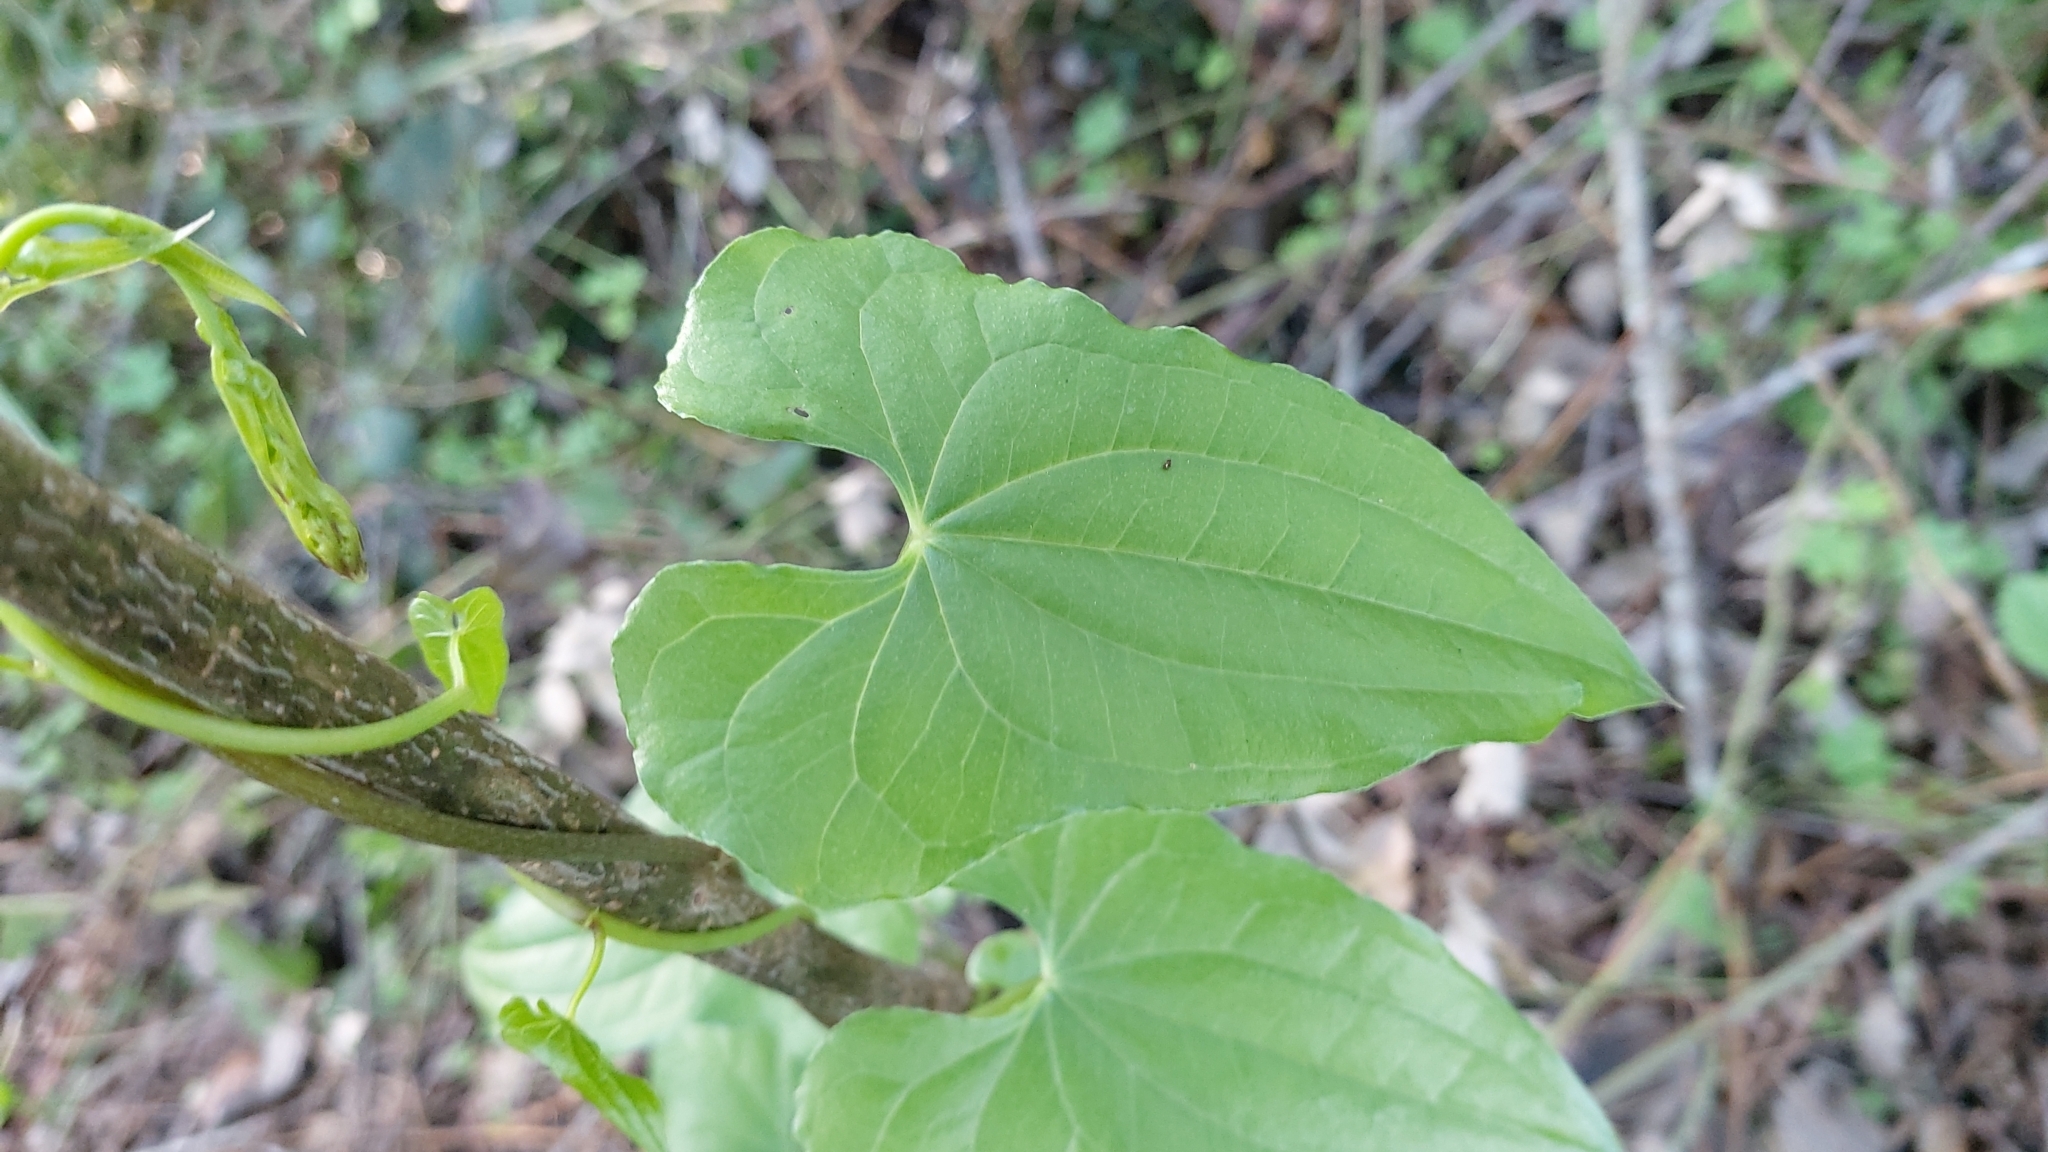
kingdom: Plantae
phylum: Tracheophyta
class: Liliopsida
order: Dioscoreales
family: Dioscoreaceae
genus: Dioscorea
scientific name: Dioscorea communis
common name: Black-bindweed
